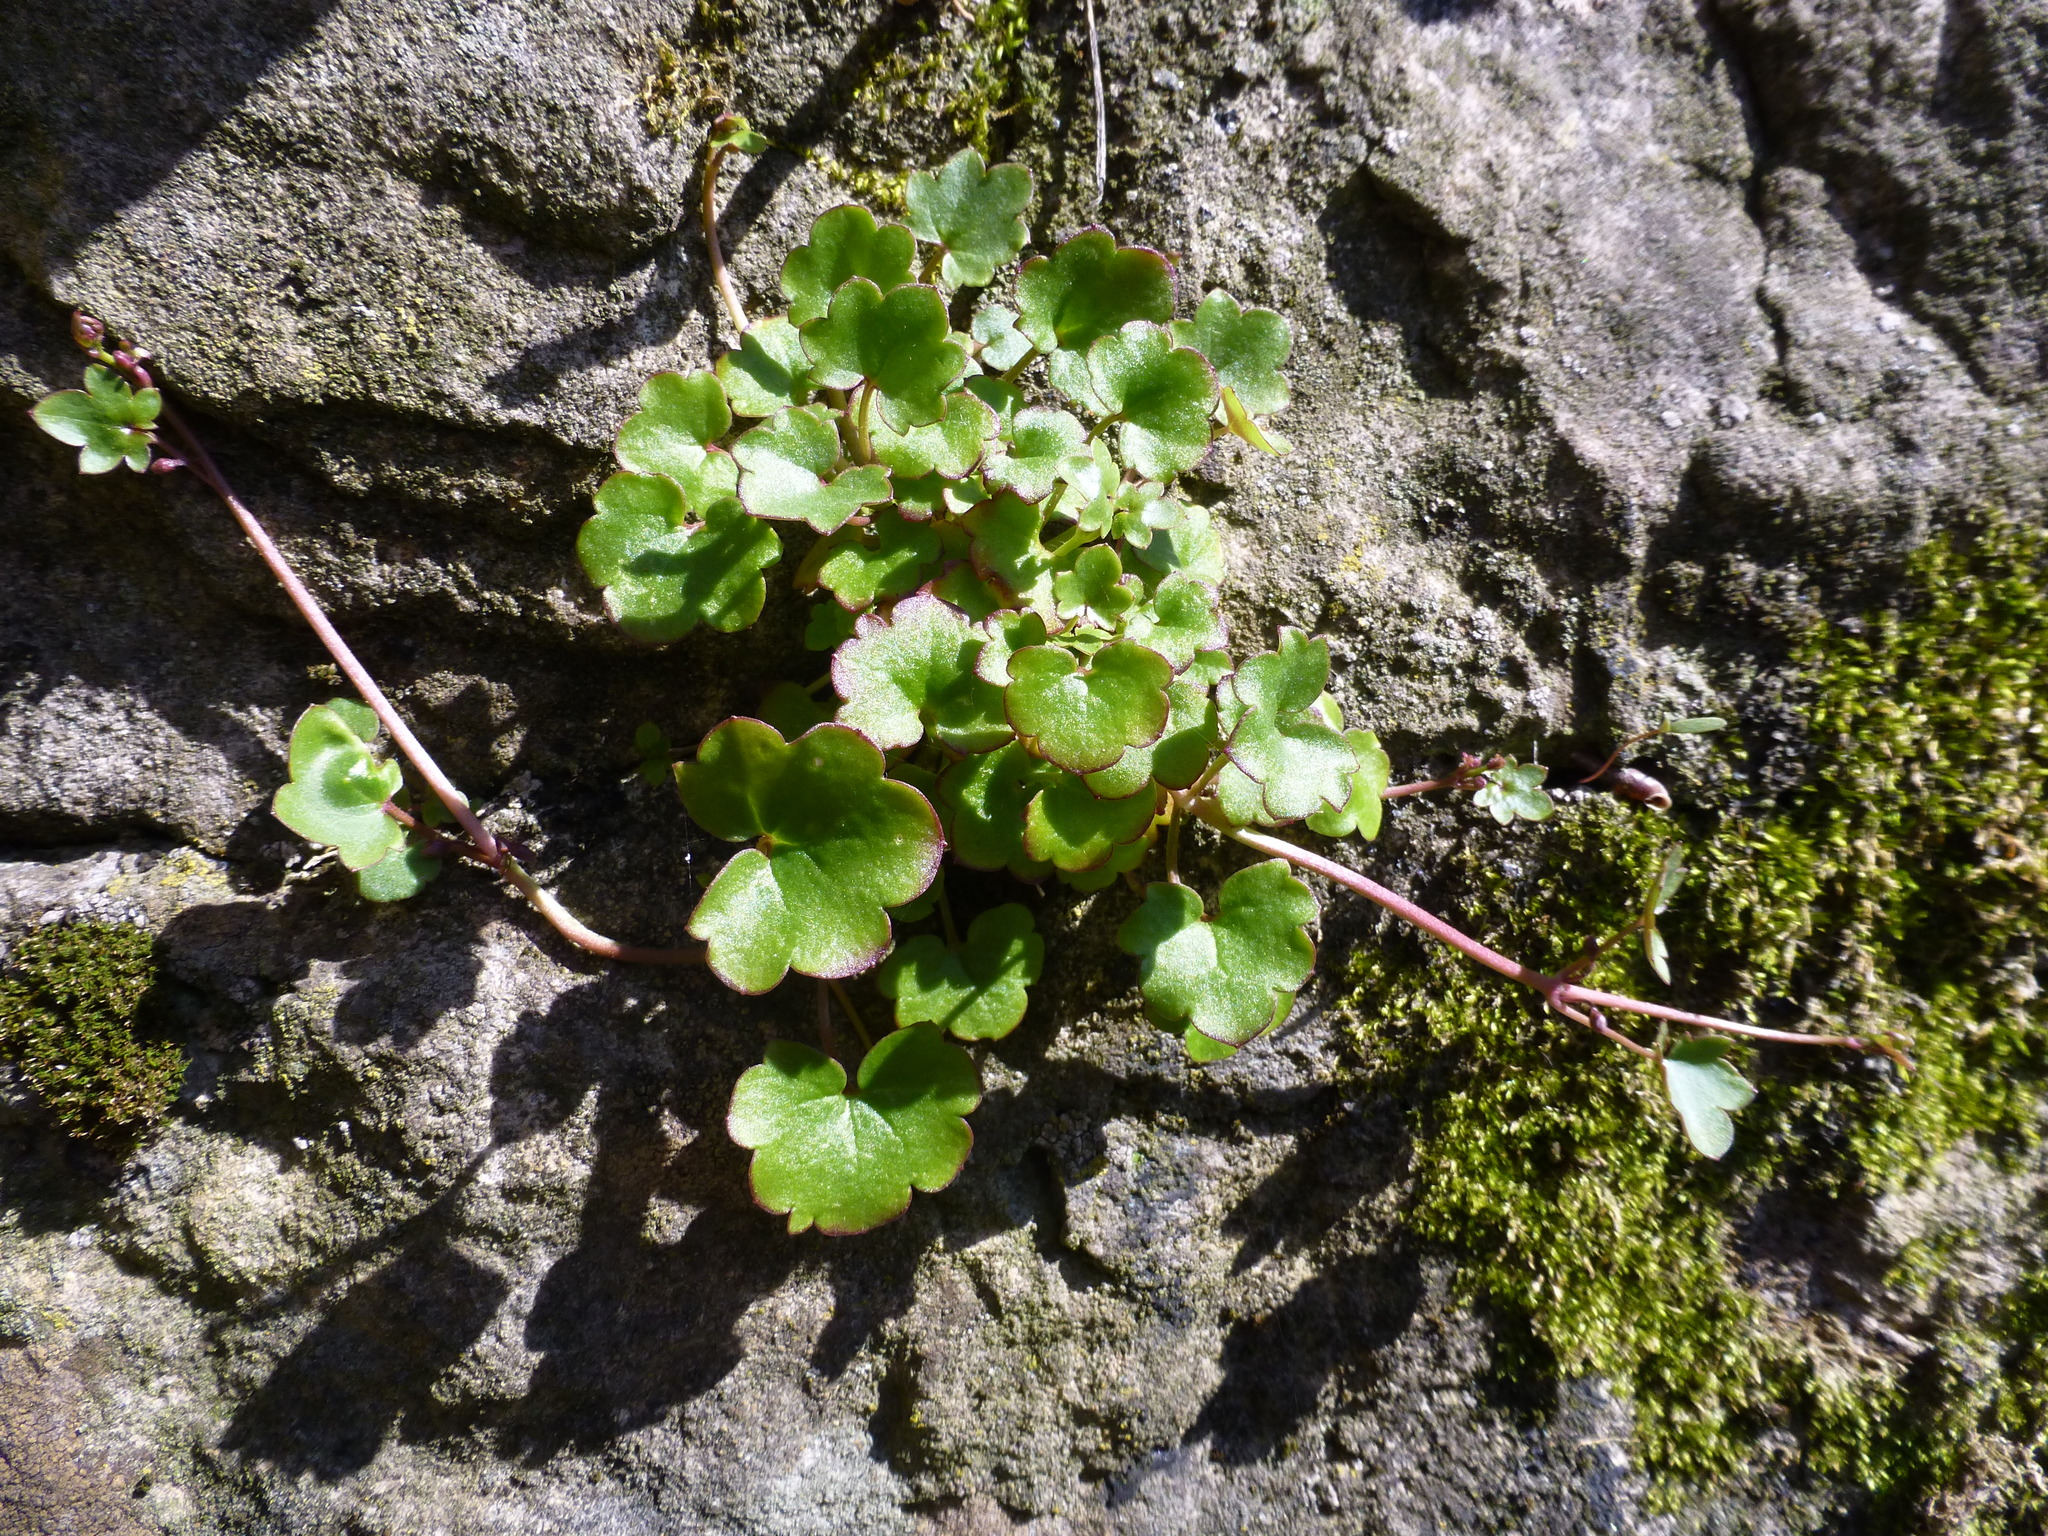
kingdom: Plantae
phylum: Tracheophyta
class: Magnoliopsida
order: Lamiales
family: Plantaginaceae
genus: Cymbalaria
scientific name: Cymbalaria muralis
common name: Ivy-leaved toadflax
